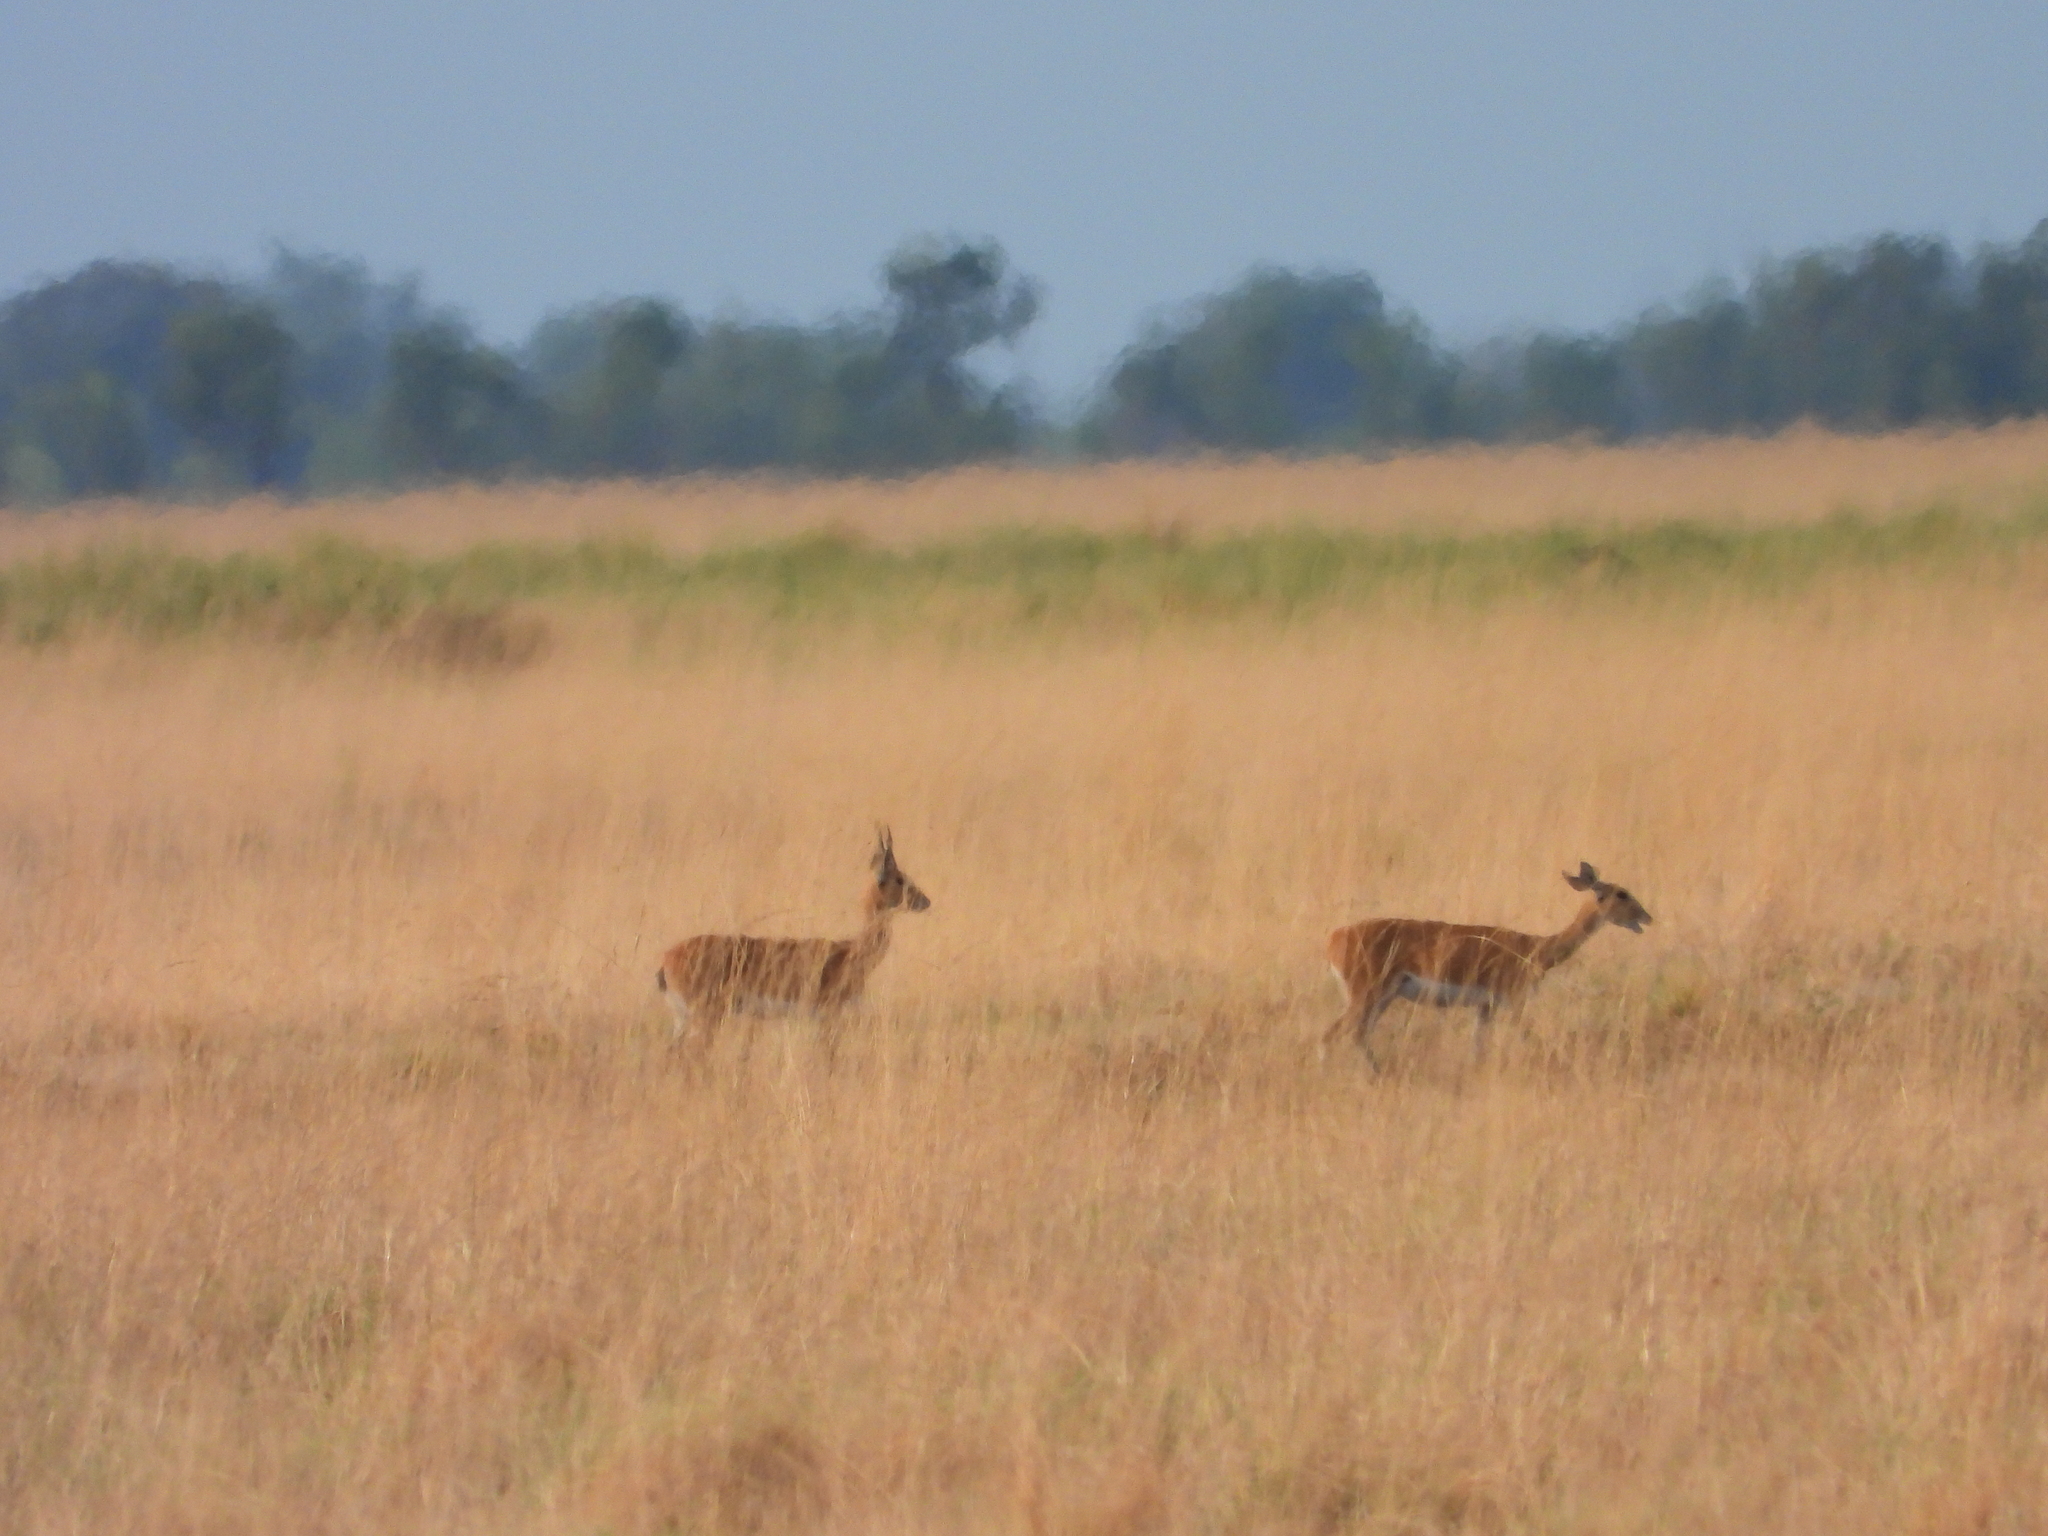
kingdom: Animalia
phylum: Chordata
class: Mammalia
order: Artiodactyla
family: Bovidae
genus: Ourebia
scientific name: Ourebia ourebi
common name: Oribi
